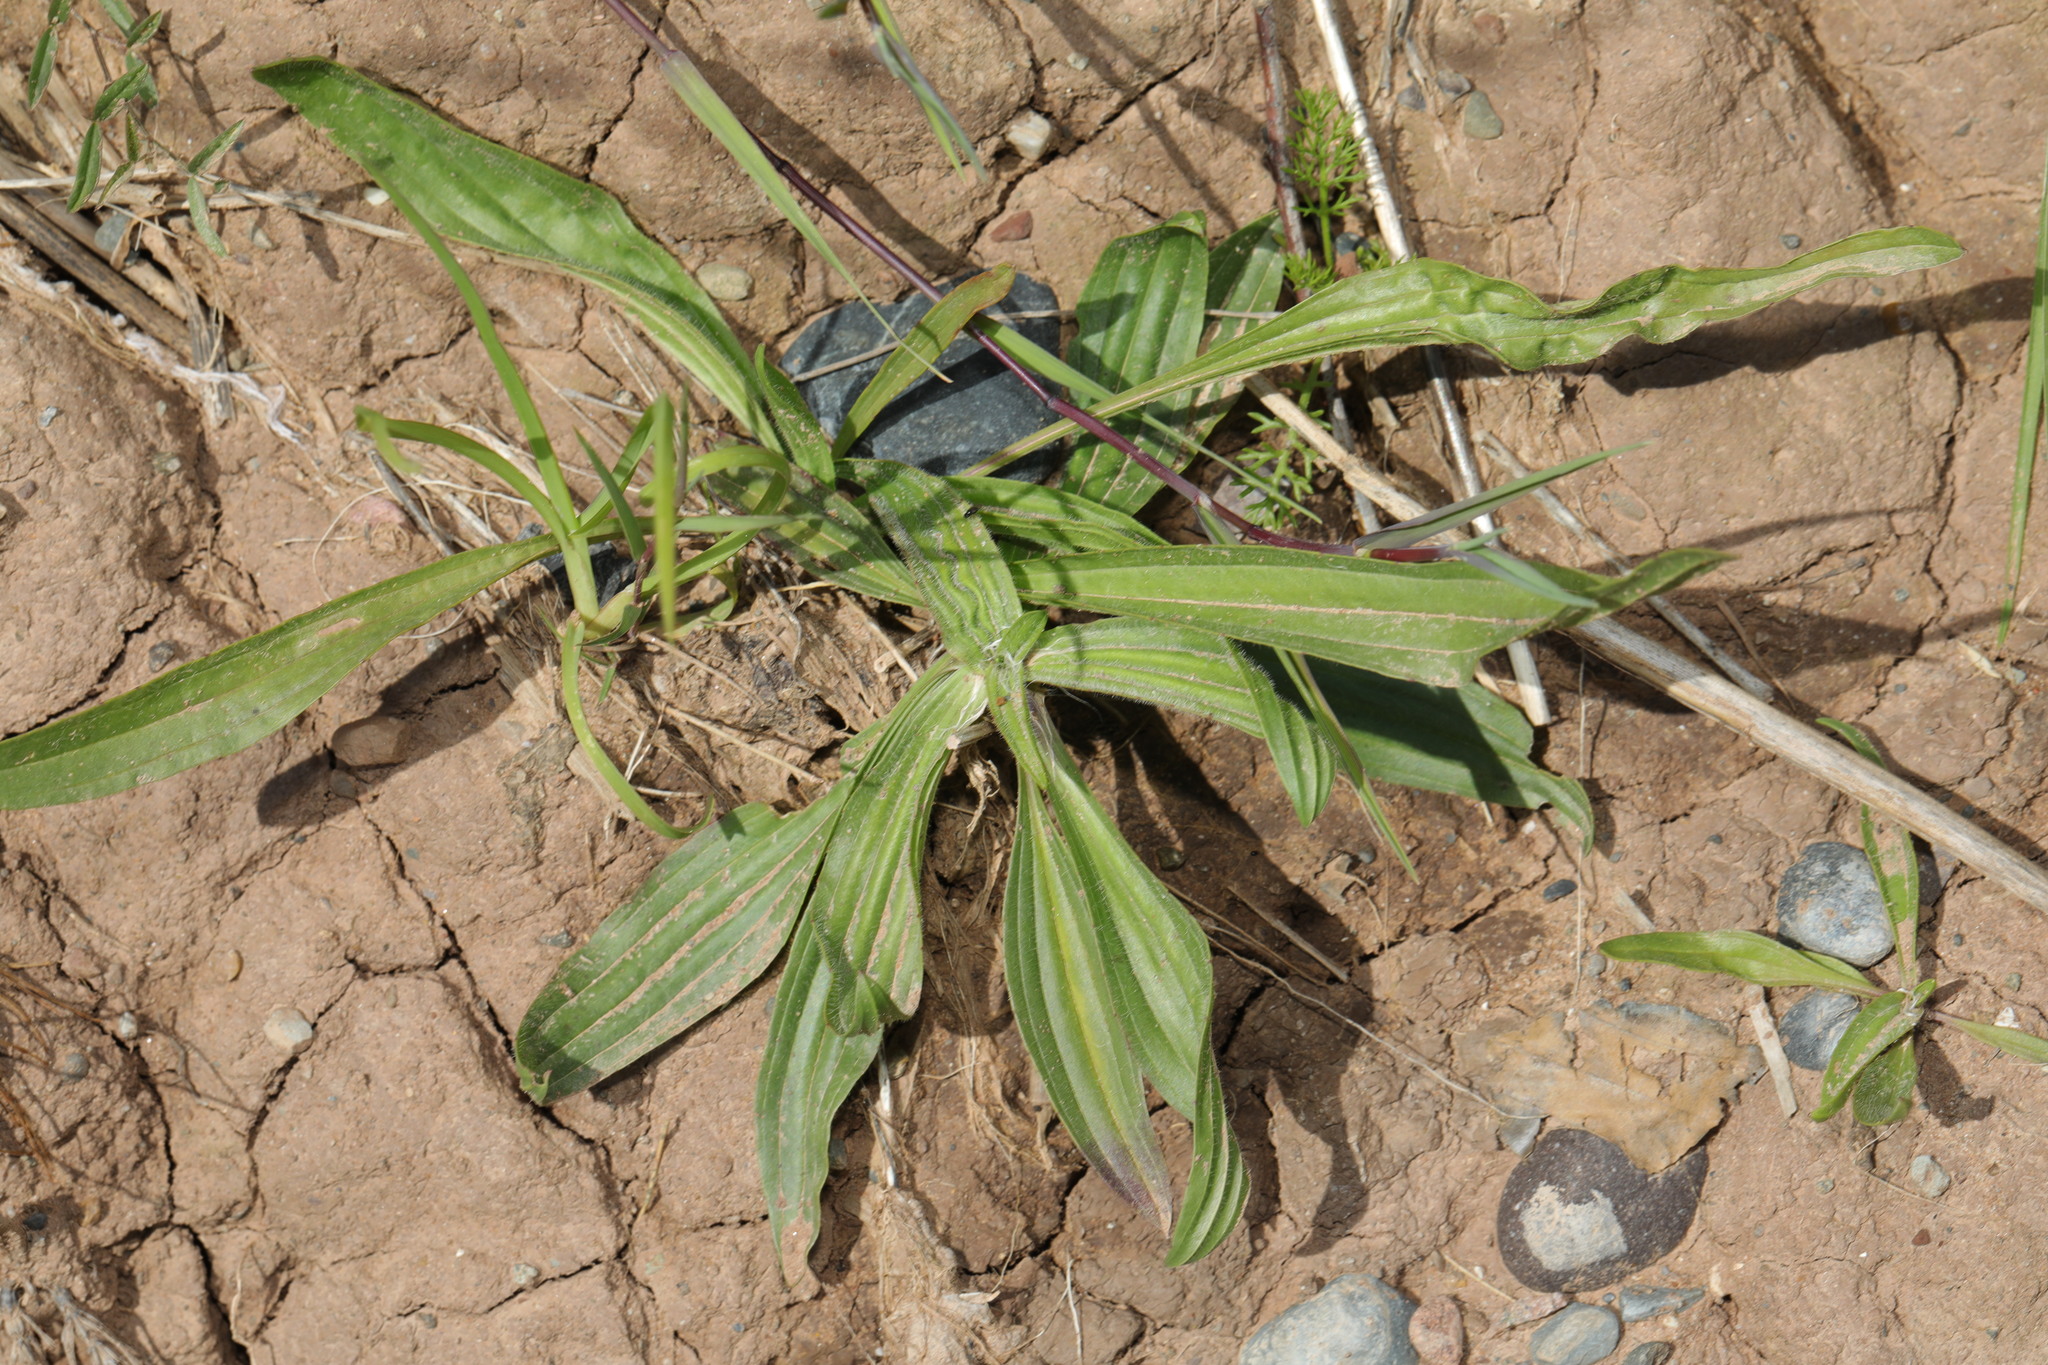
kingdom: Plantae
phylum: Tracheophyta
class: Magnoliopsida
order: Lamiales
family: Plantaginaceae
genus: Plantago
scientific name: Plantago lanceolata
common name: Ribwort plantain
